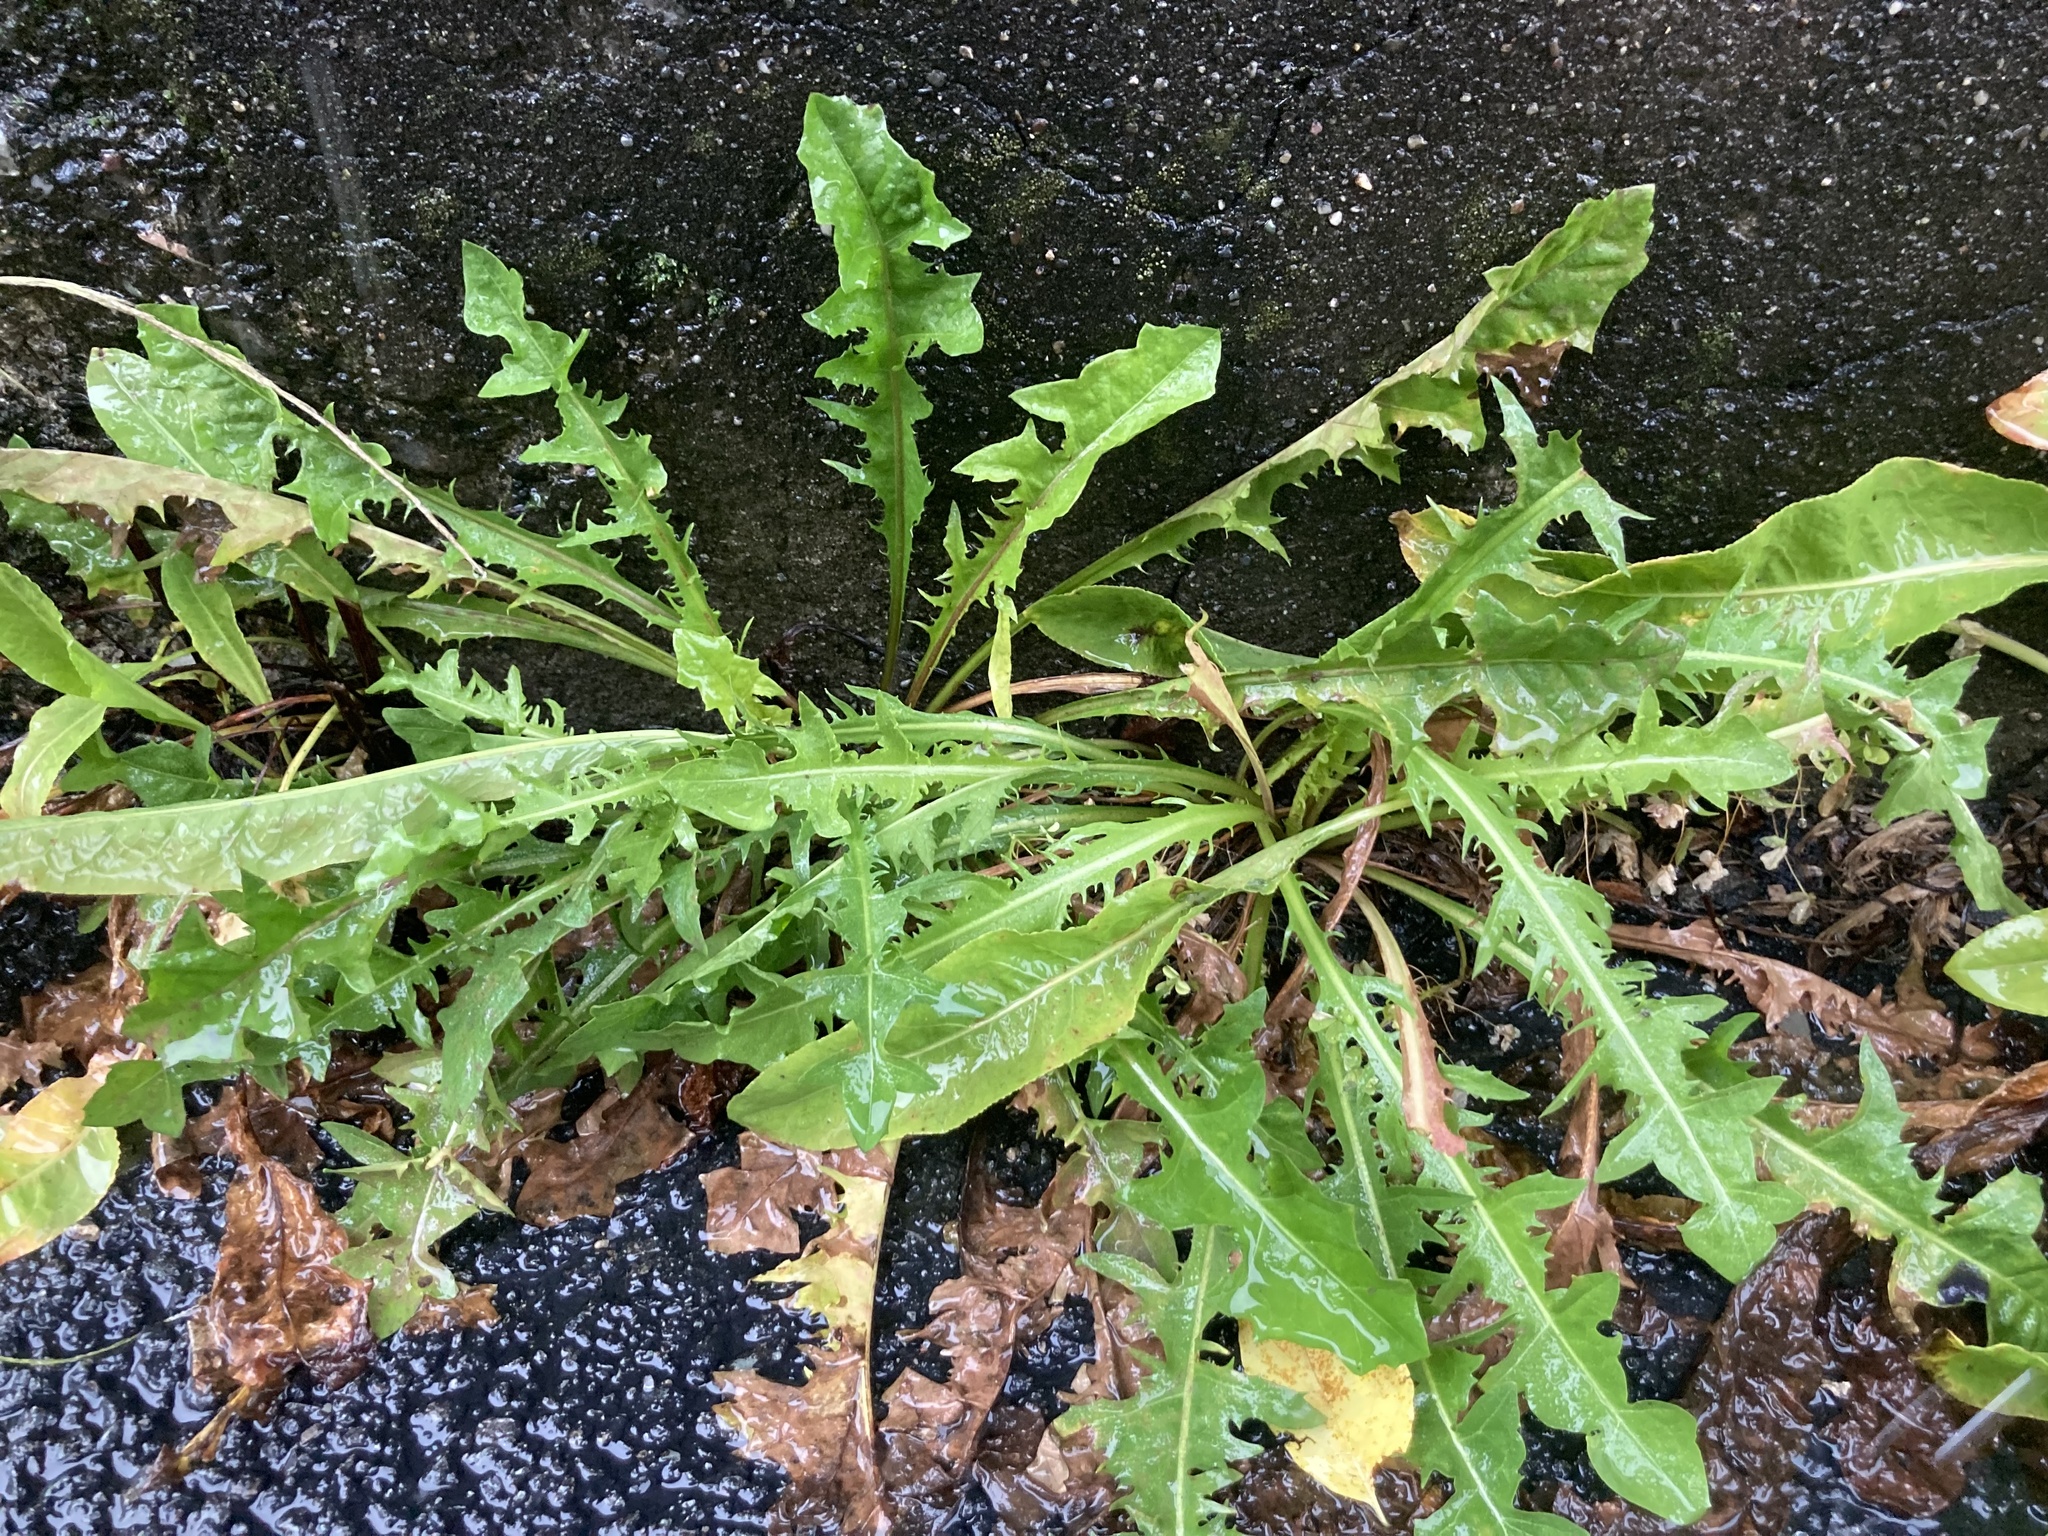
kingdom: Plantae
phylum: Tracheophyta
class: Magnoliopsida
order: Asterales
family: Asteraceae
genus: Taraxacum
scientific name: Taraxacum officinale
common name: Common dandelion
